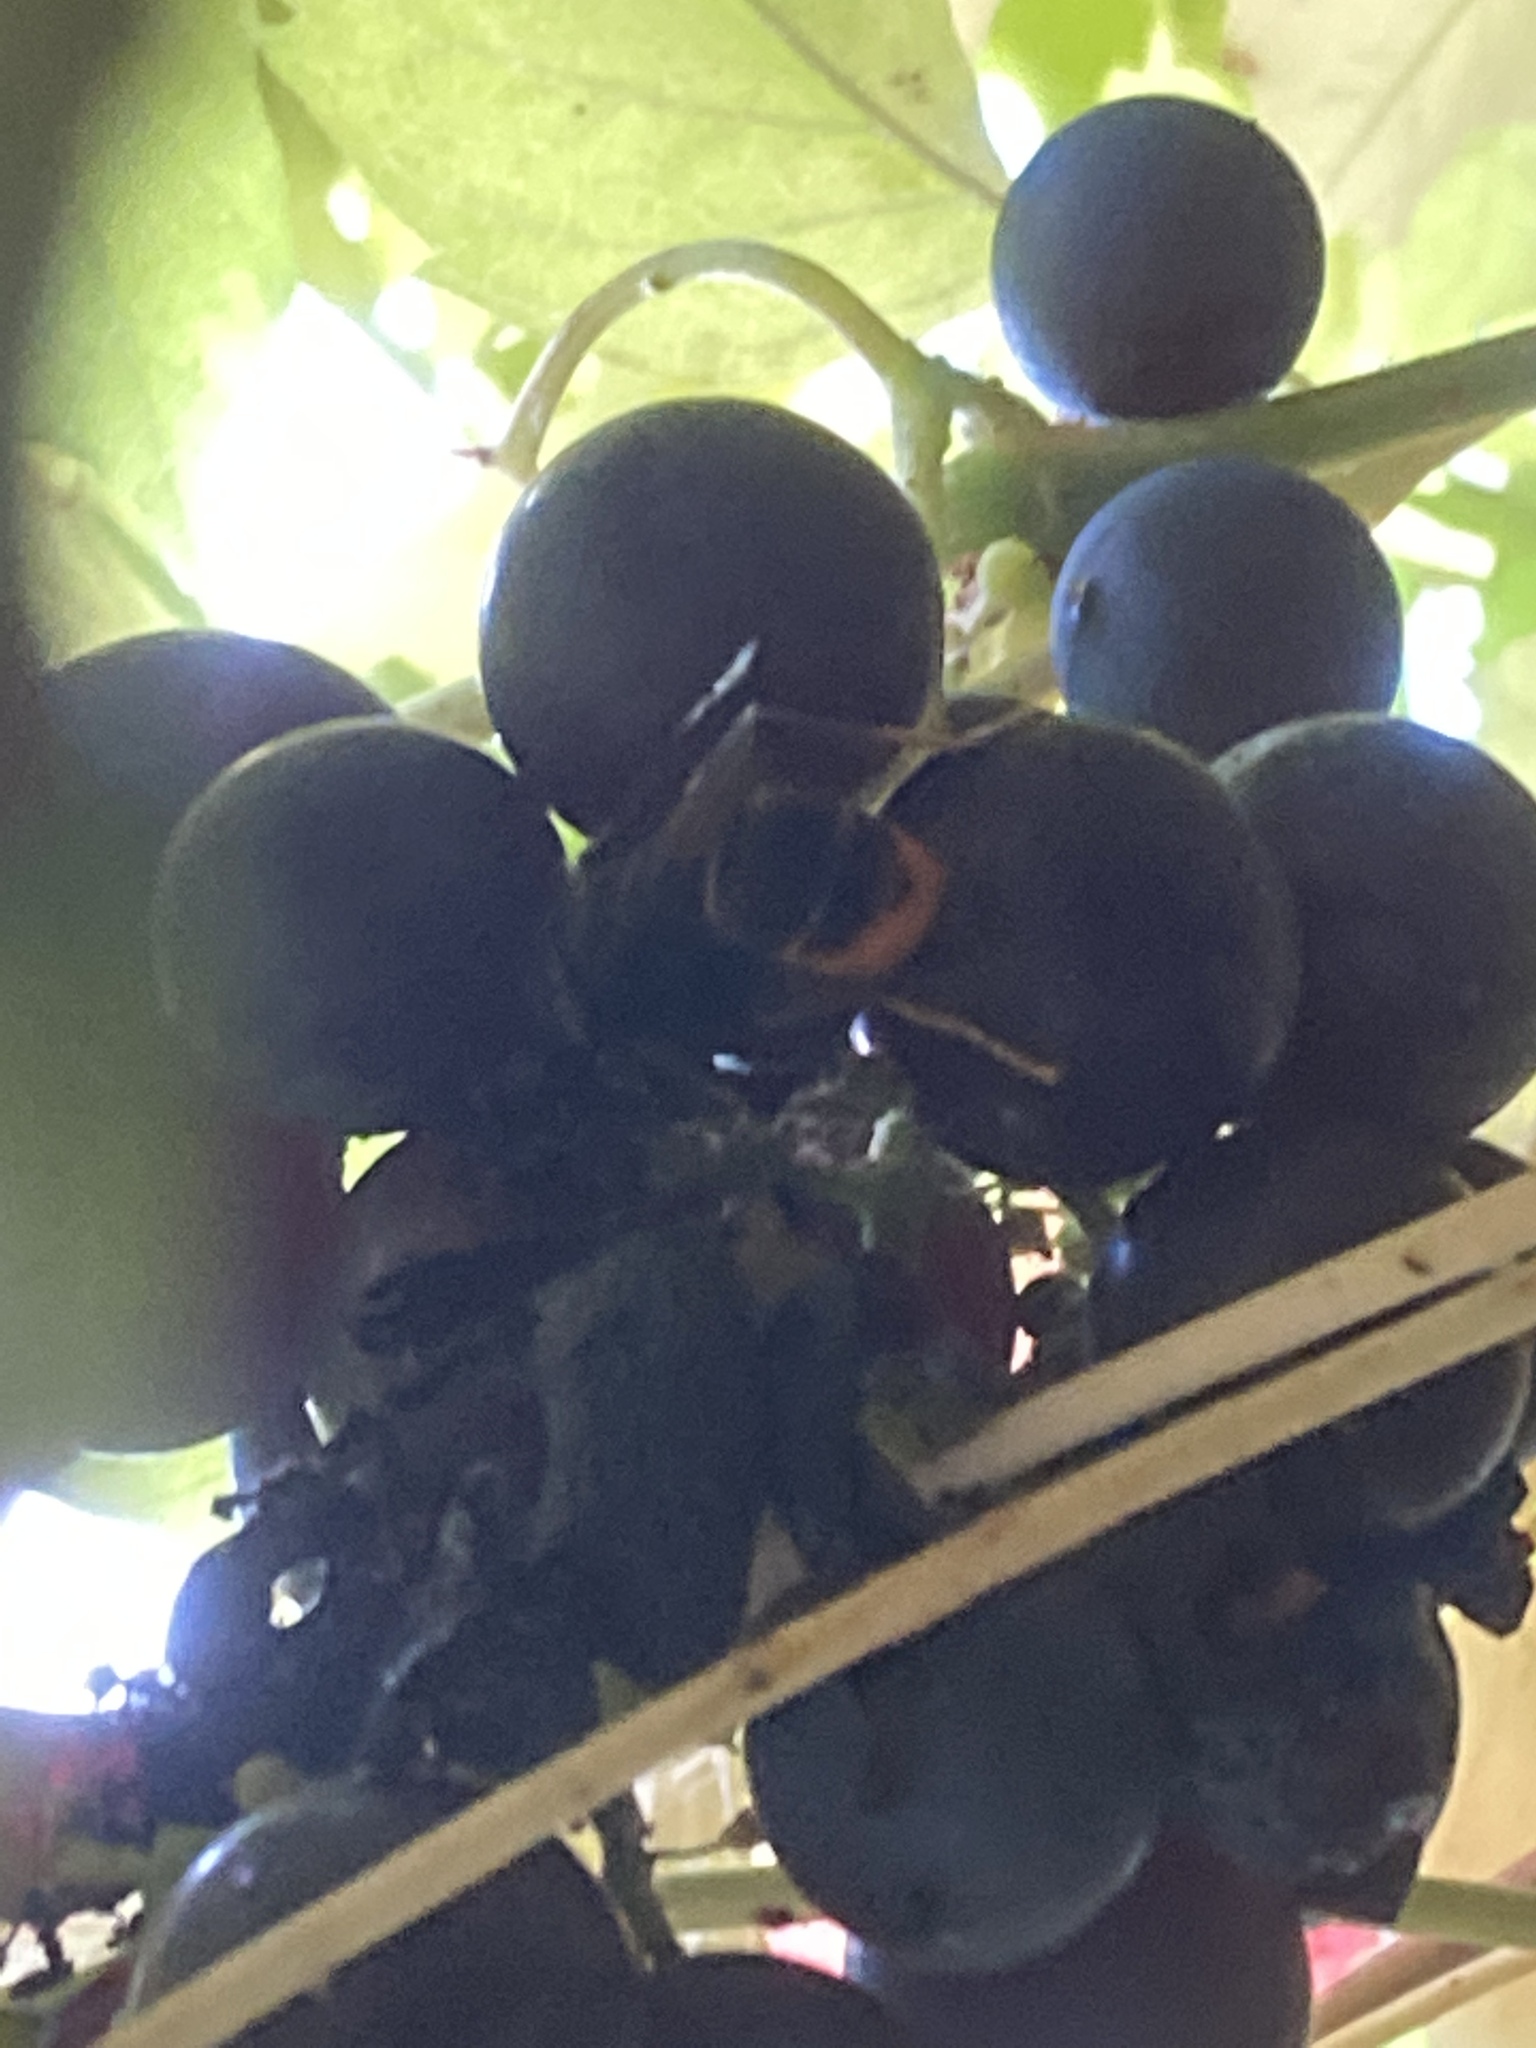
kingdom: Animalia
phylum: Arthropoda
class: Insecta
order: Hymenoptera
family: Vespidae
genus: Vespa
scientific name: Vespa velutina
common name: Asian hornet
